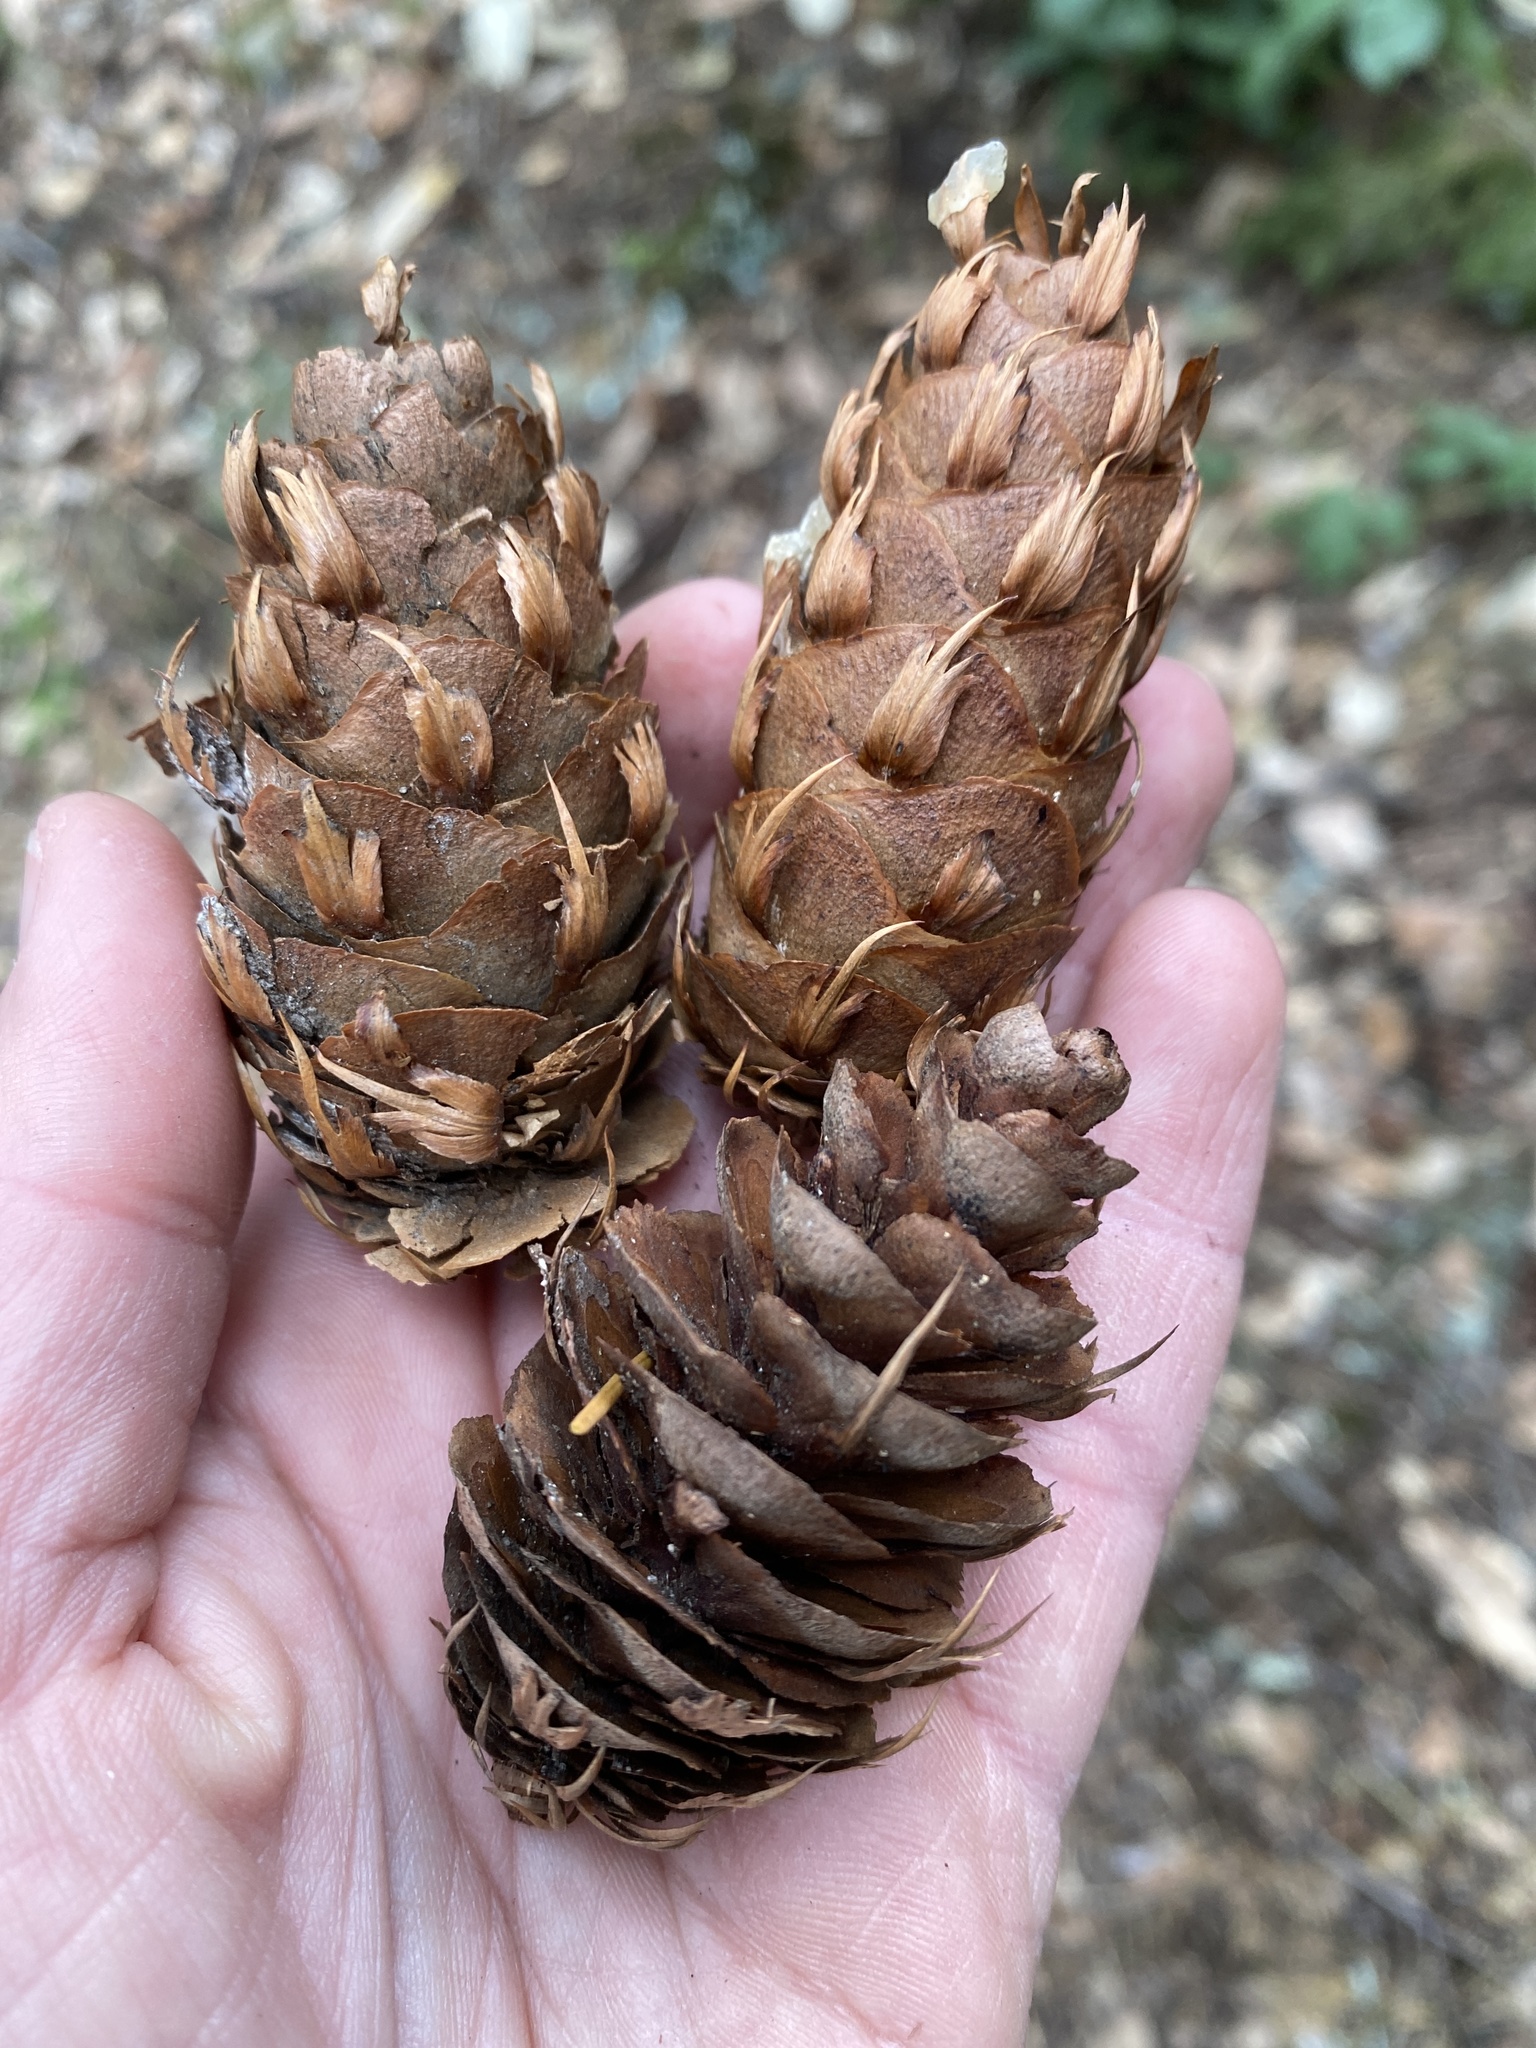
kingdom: Plantae
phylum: Tracheophyta
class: Pinopsida
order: Pinales
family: Pinaceae
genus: Pseudotsuga
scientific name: Pseudotsuga menziesii
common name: Douglas fir
